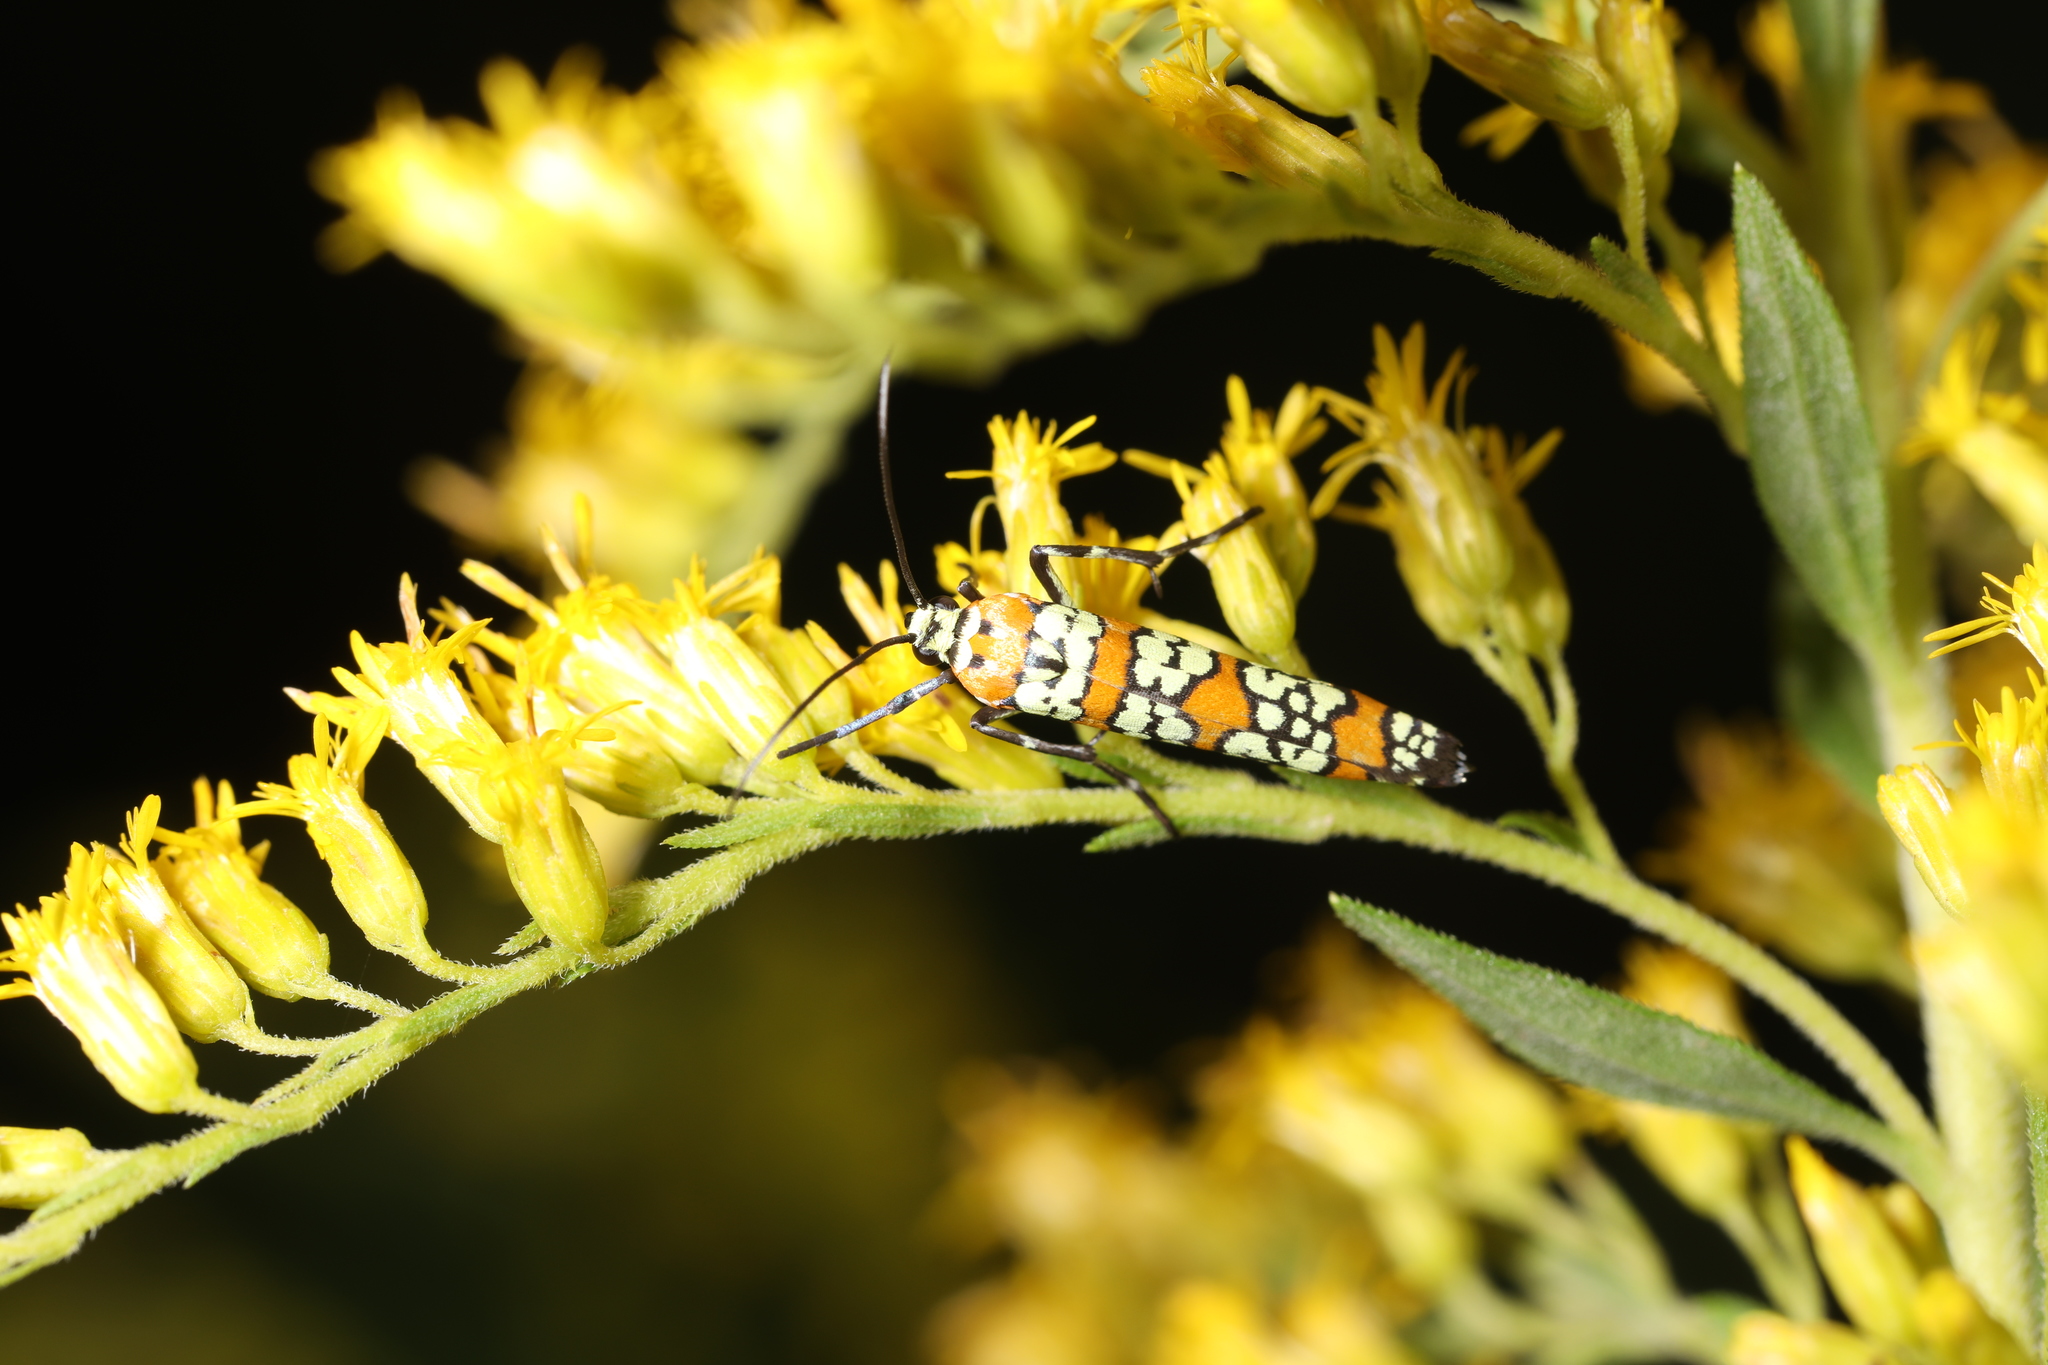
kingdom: Animalia
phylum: Arthropoda
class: Insecta
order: Lepidoptera
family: Attevidae
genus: Atteva
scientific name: Atteva punctella
